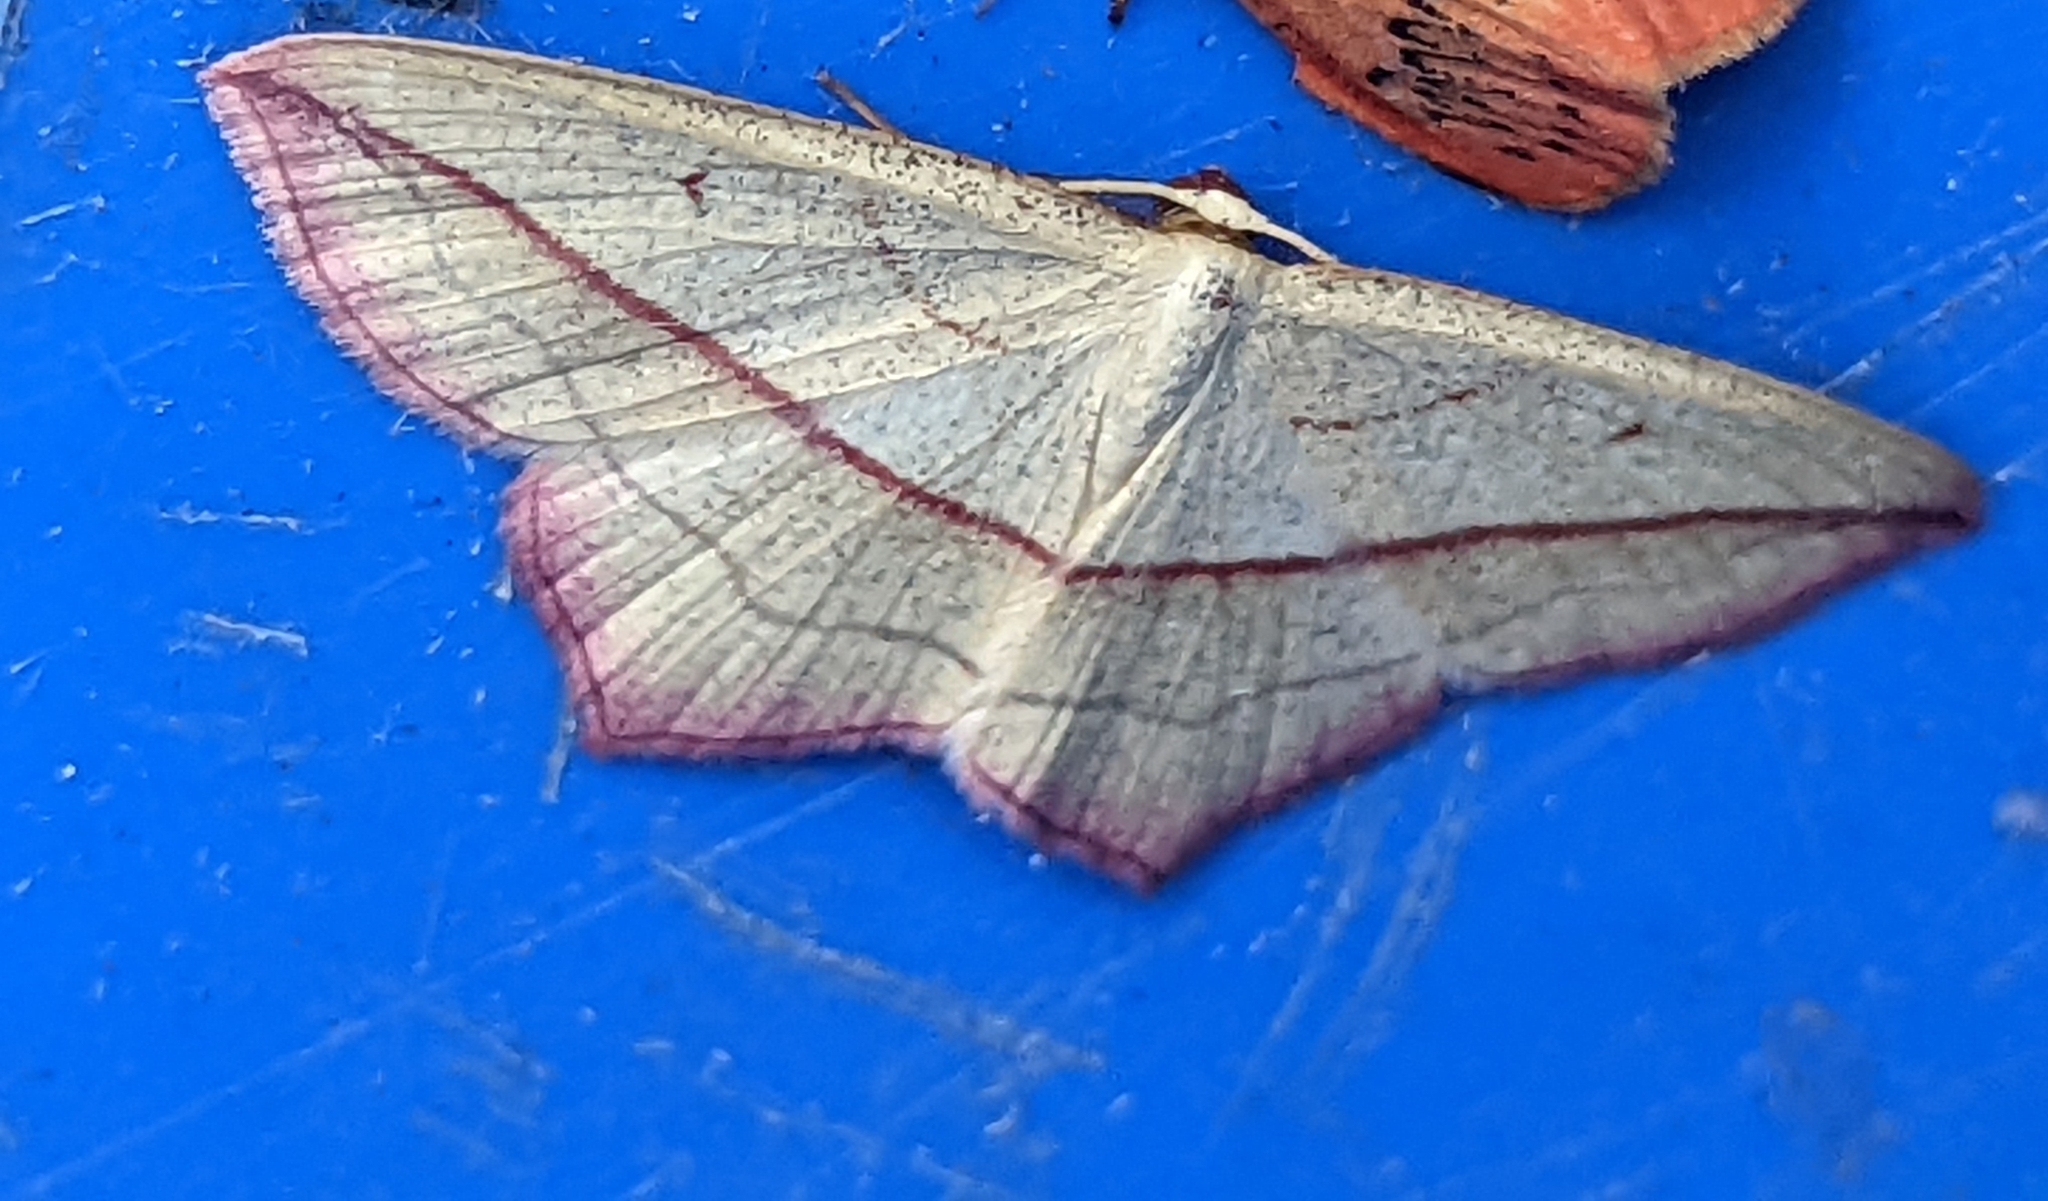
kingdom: Animalia
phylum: Arthropoda
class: Insecta
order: Lepidoptera
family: Geometridae
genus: Timandra
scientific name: Timandra comae
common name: Blood-vein
